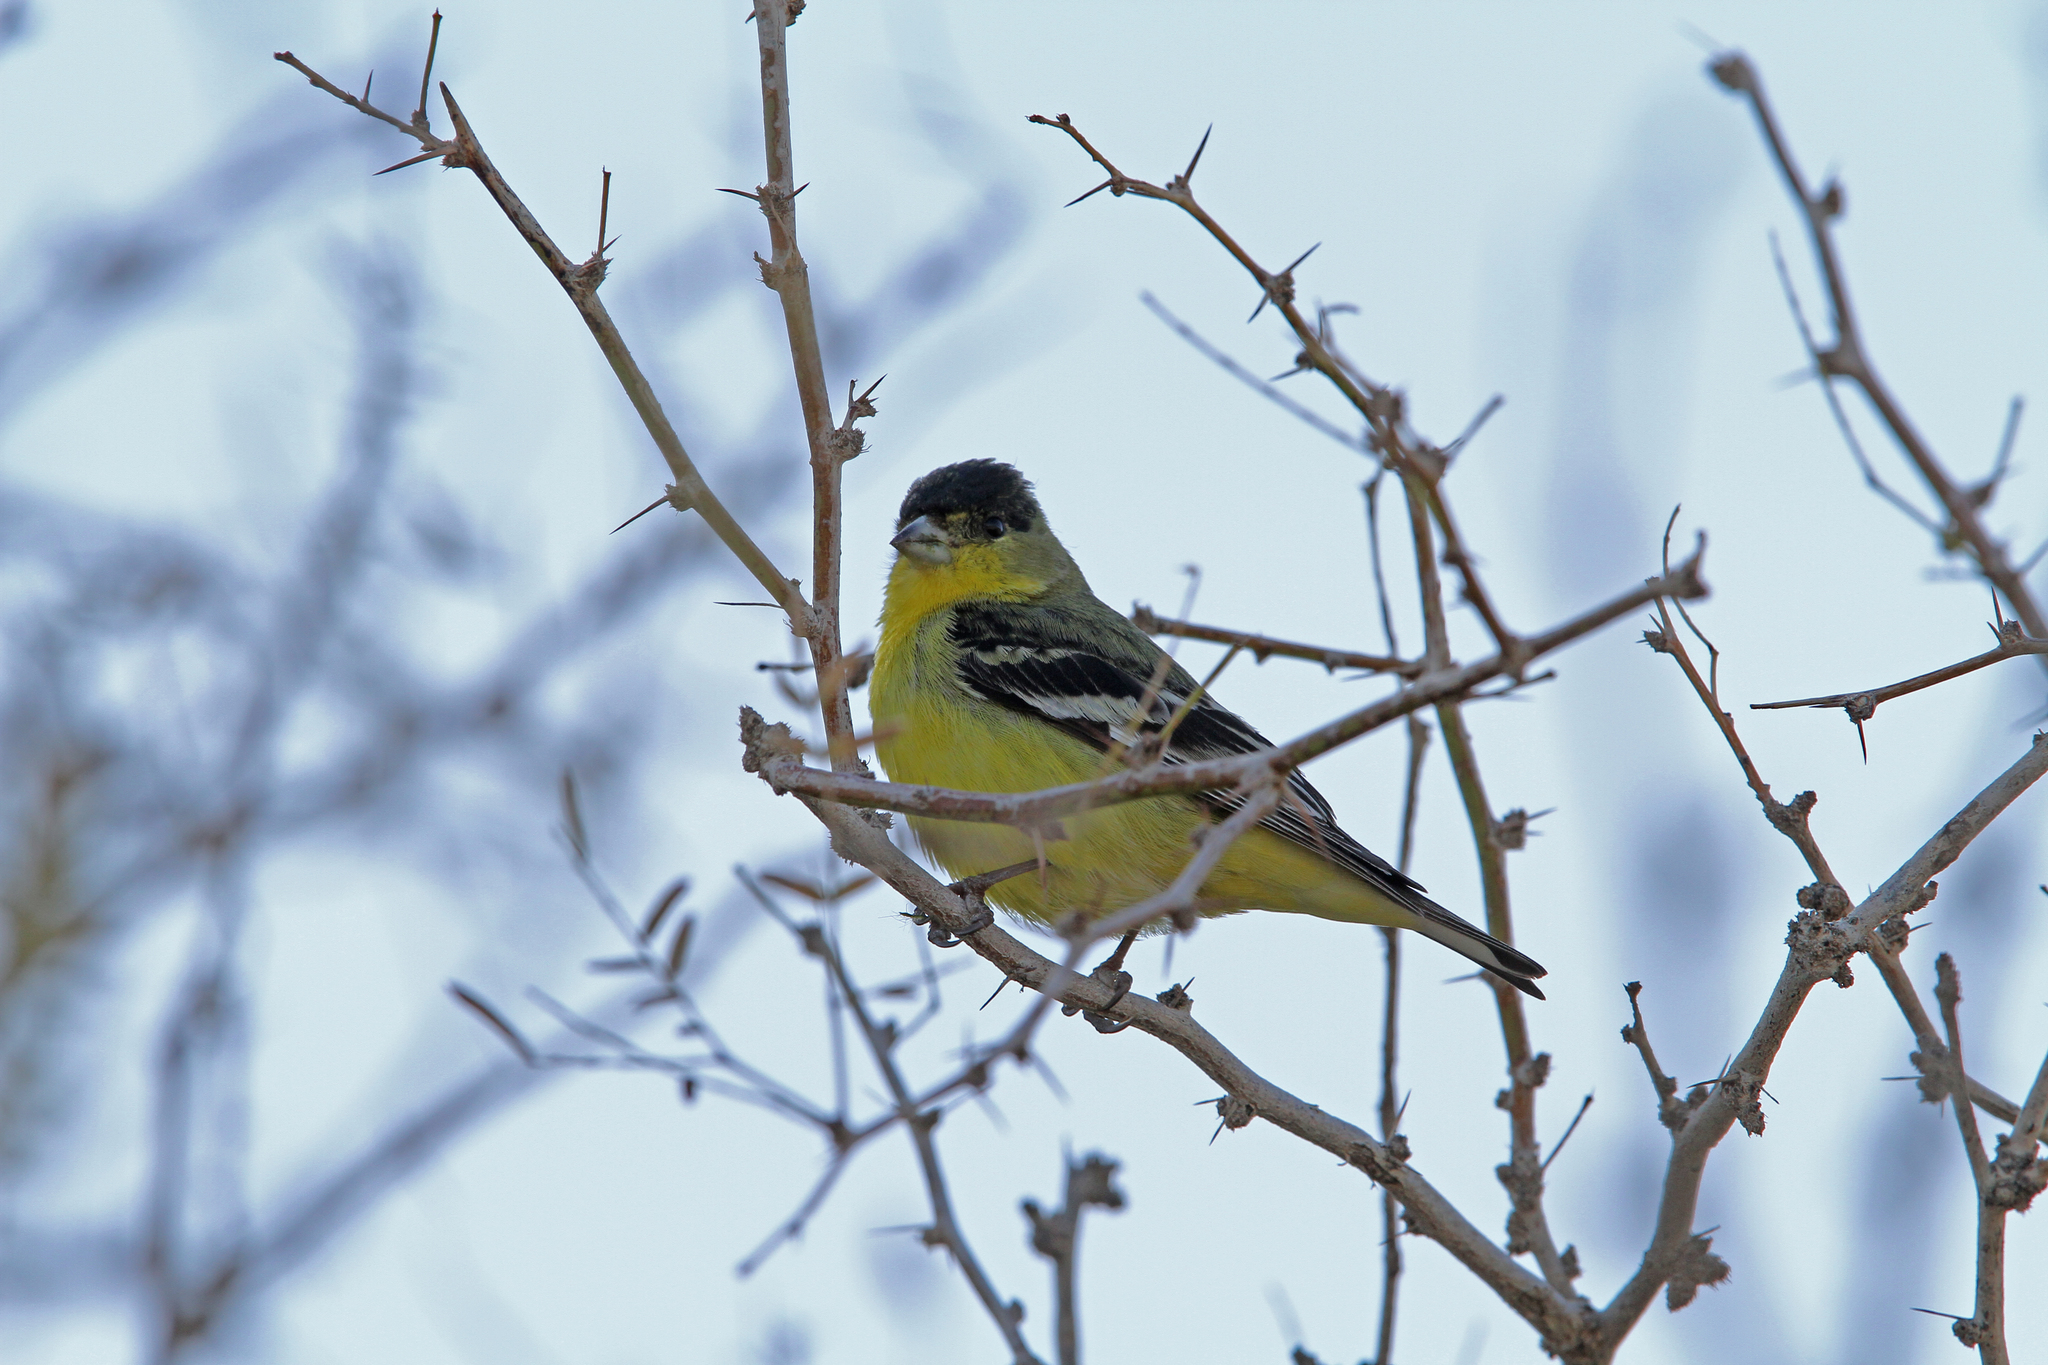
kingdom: Animalia
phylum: Chordata
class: Aves
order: Passeriformes
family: Fringillidae
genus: Spinus
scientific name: Spinus psaltria
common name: Lesser goldfinch
